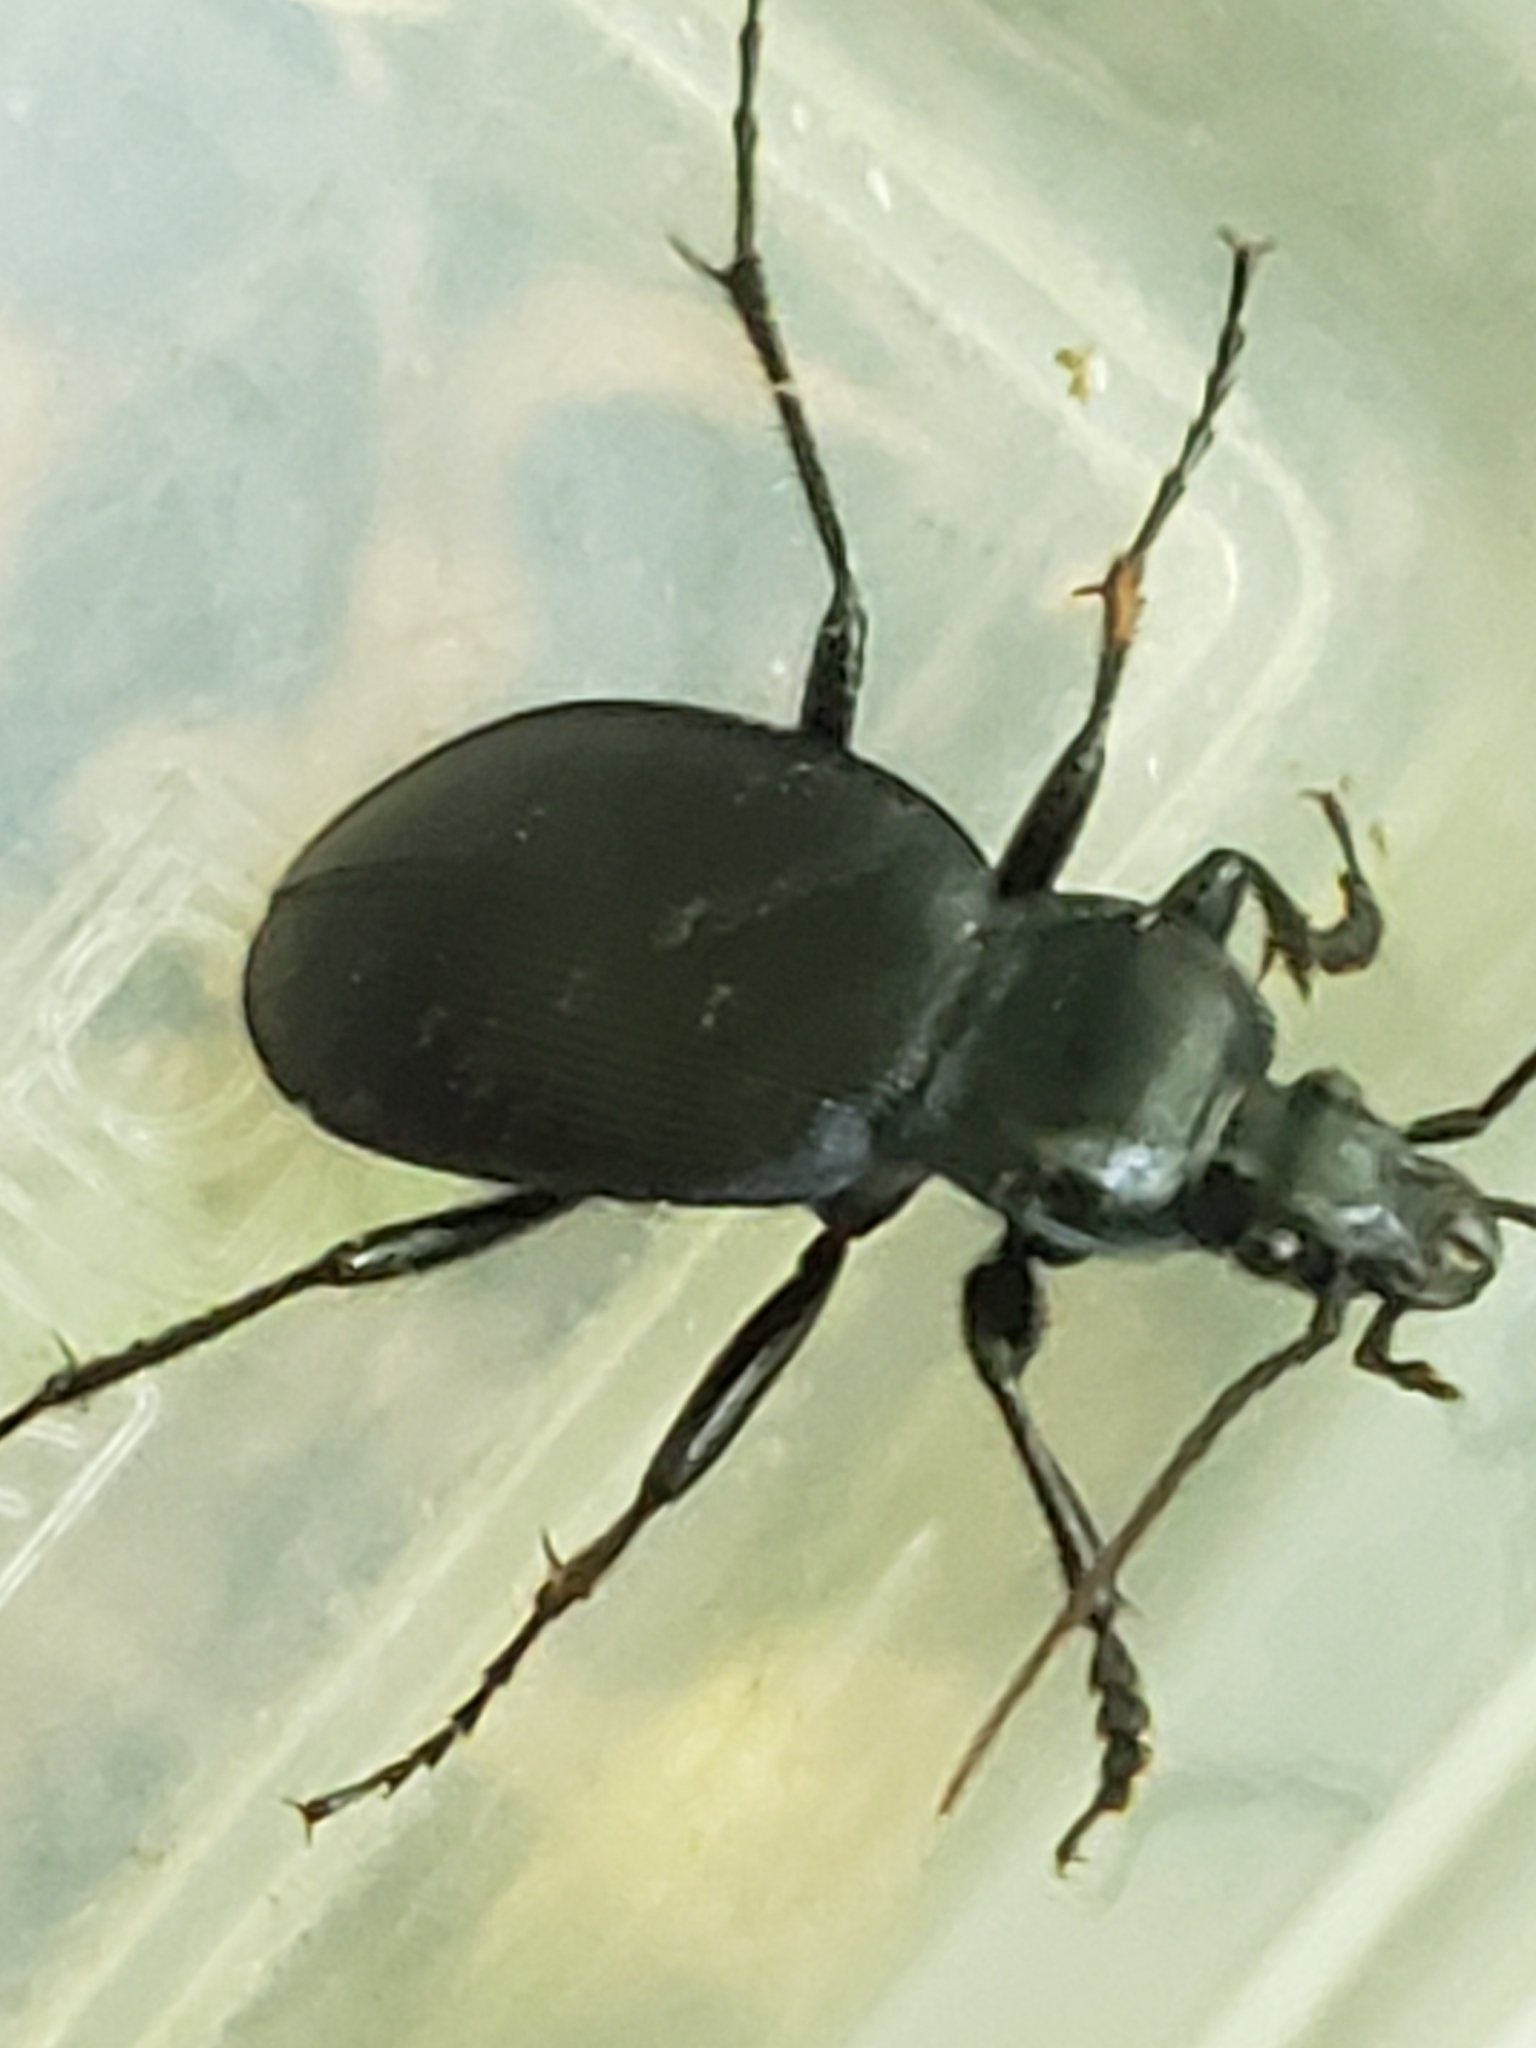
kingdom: Animalia
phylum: Arthropoda
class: Insecta
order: Coleoptera
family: Carabidae
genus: Carabus
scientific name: Carabus goryi
